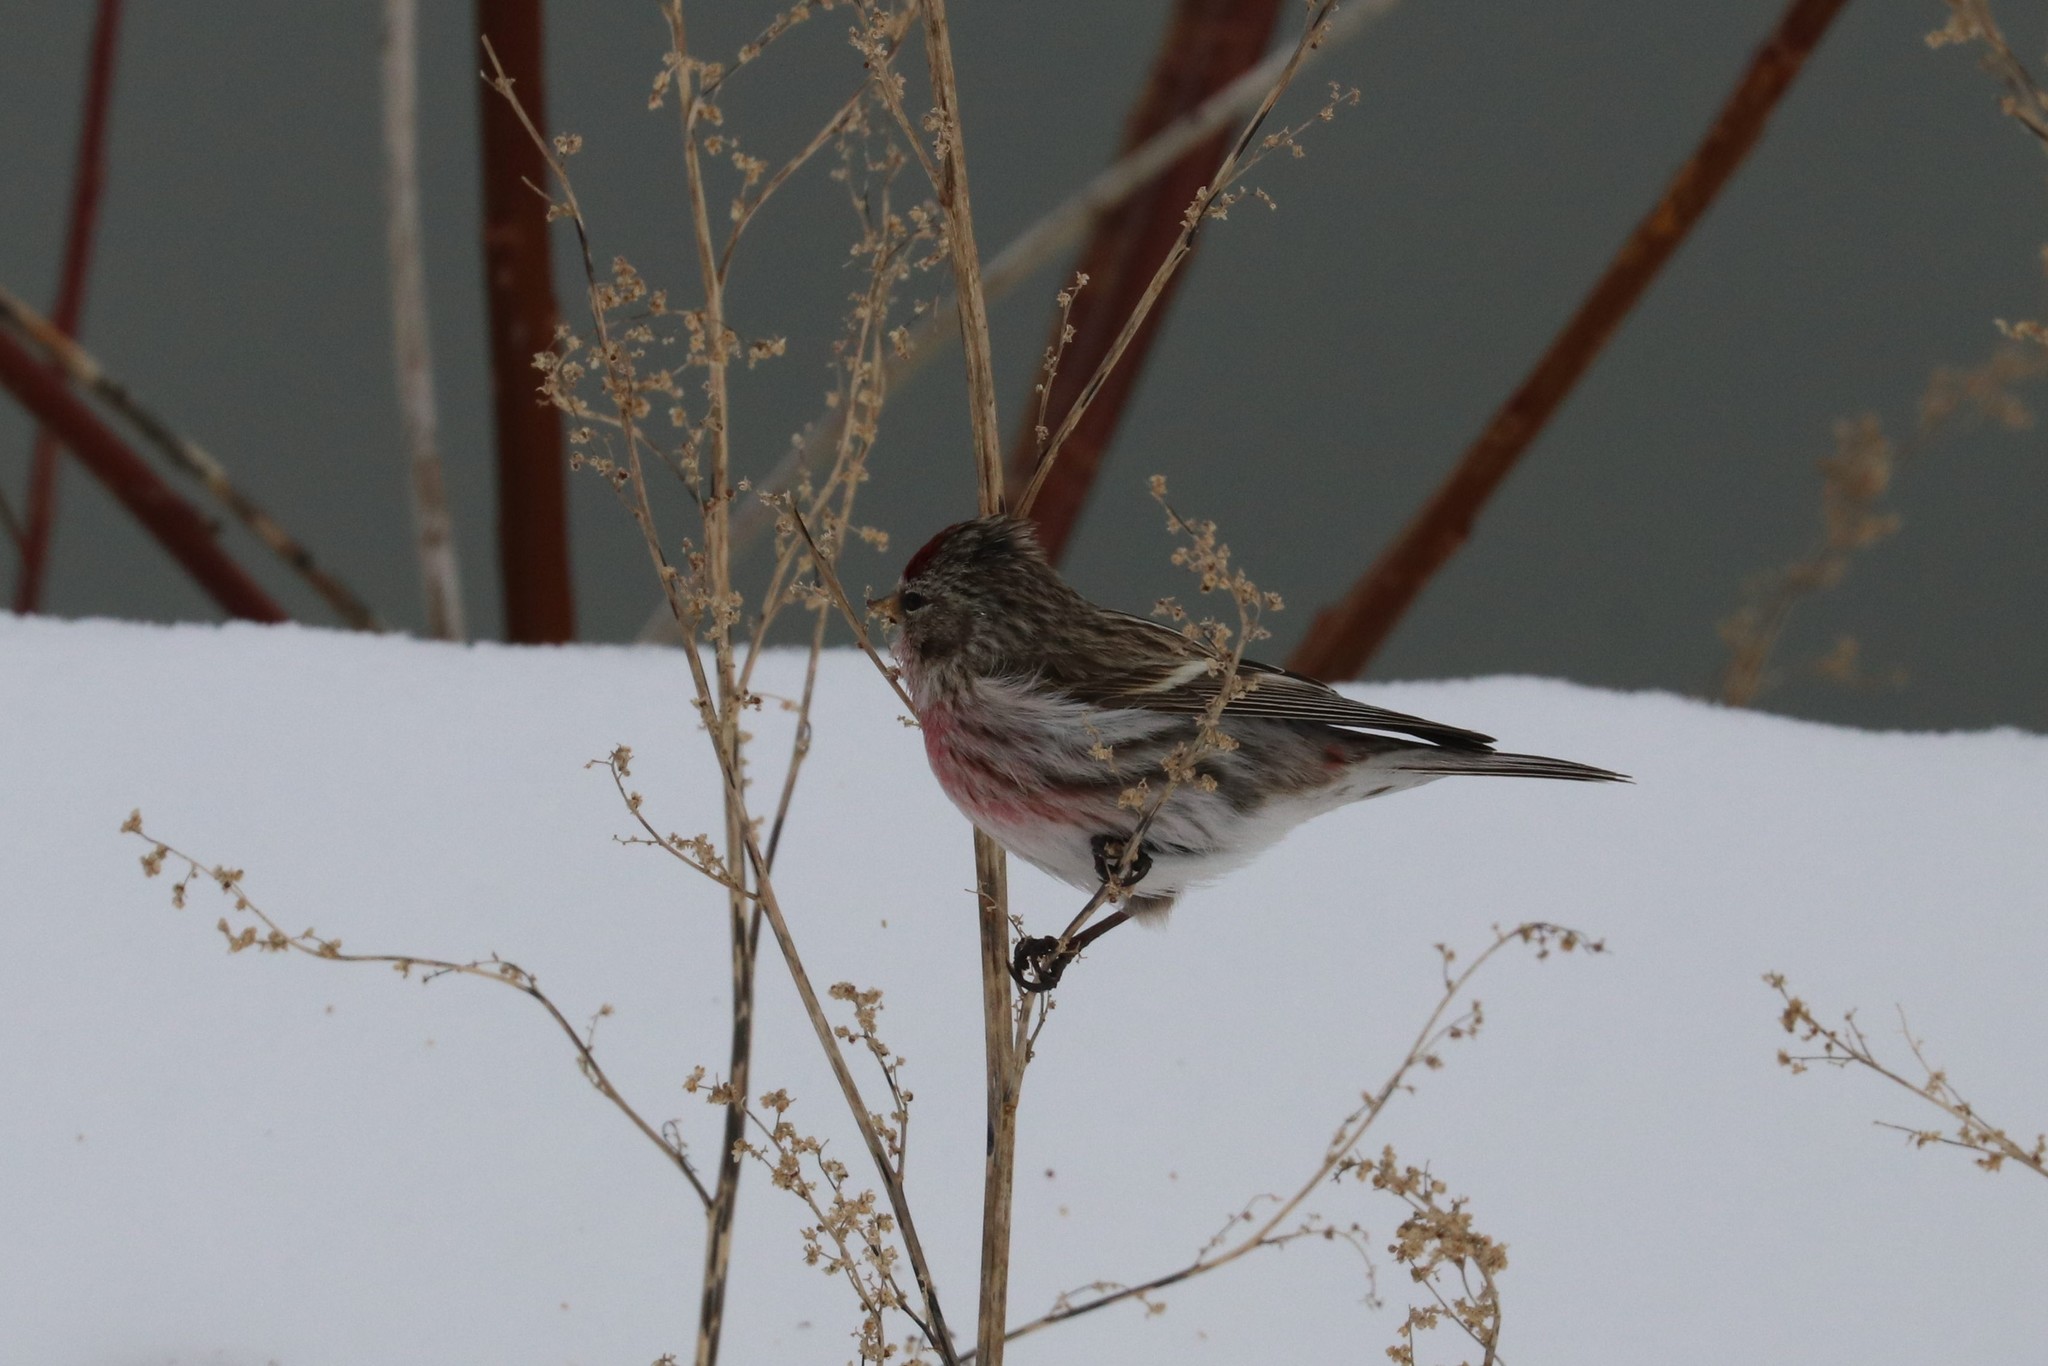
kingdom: Animalia
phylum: Chordata
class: Aves
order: Passeriformes
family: Fringillidae
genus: Acanthis
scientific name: Acanthis flammea
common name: Common redpoll
